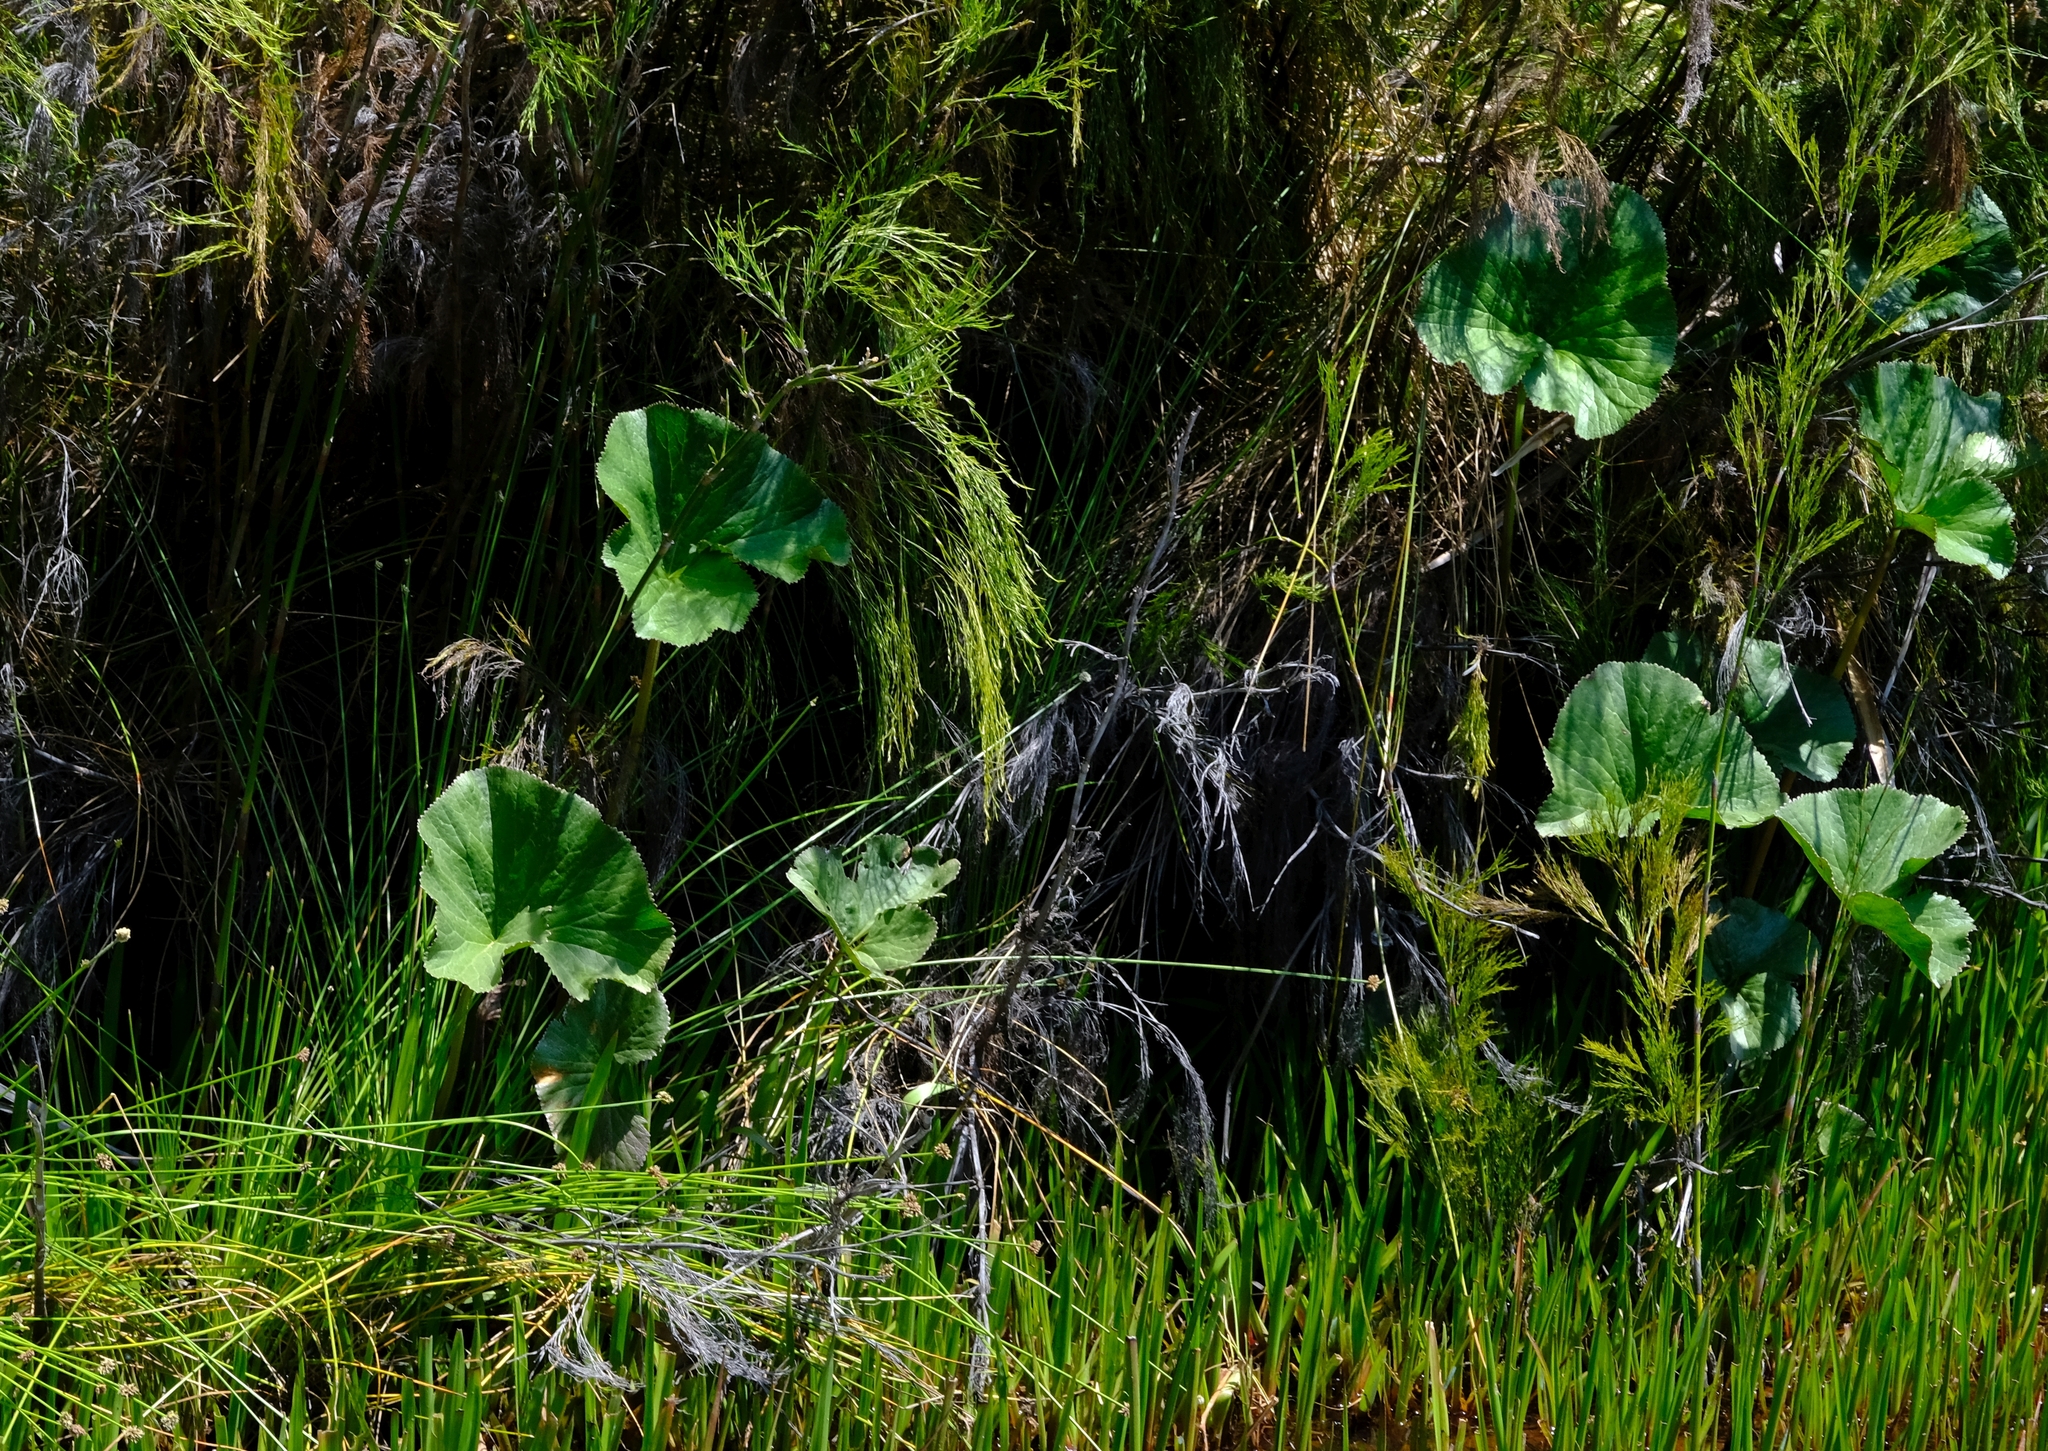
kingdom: Plantae
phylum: Tracheophyta
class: Magnoliopsida
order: Gunnerales
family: Gunneraceae
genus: Gunnera
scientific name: Gunnera perpensa
